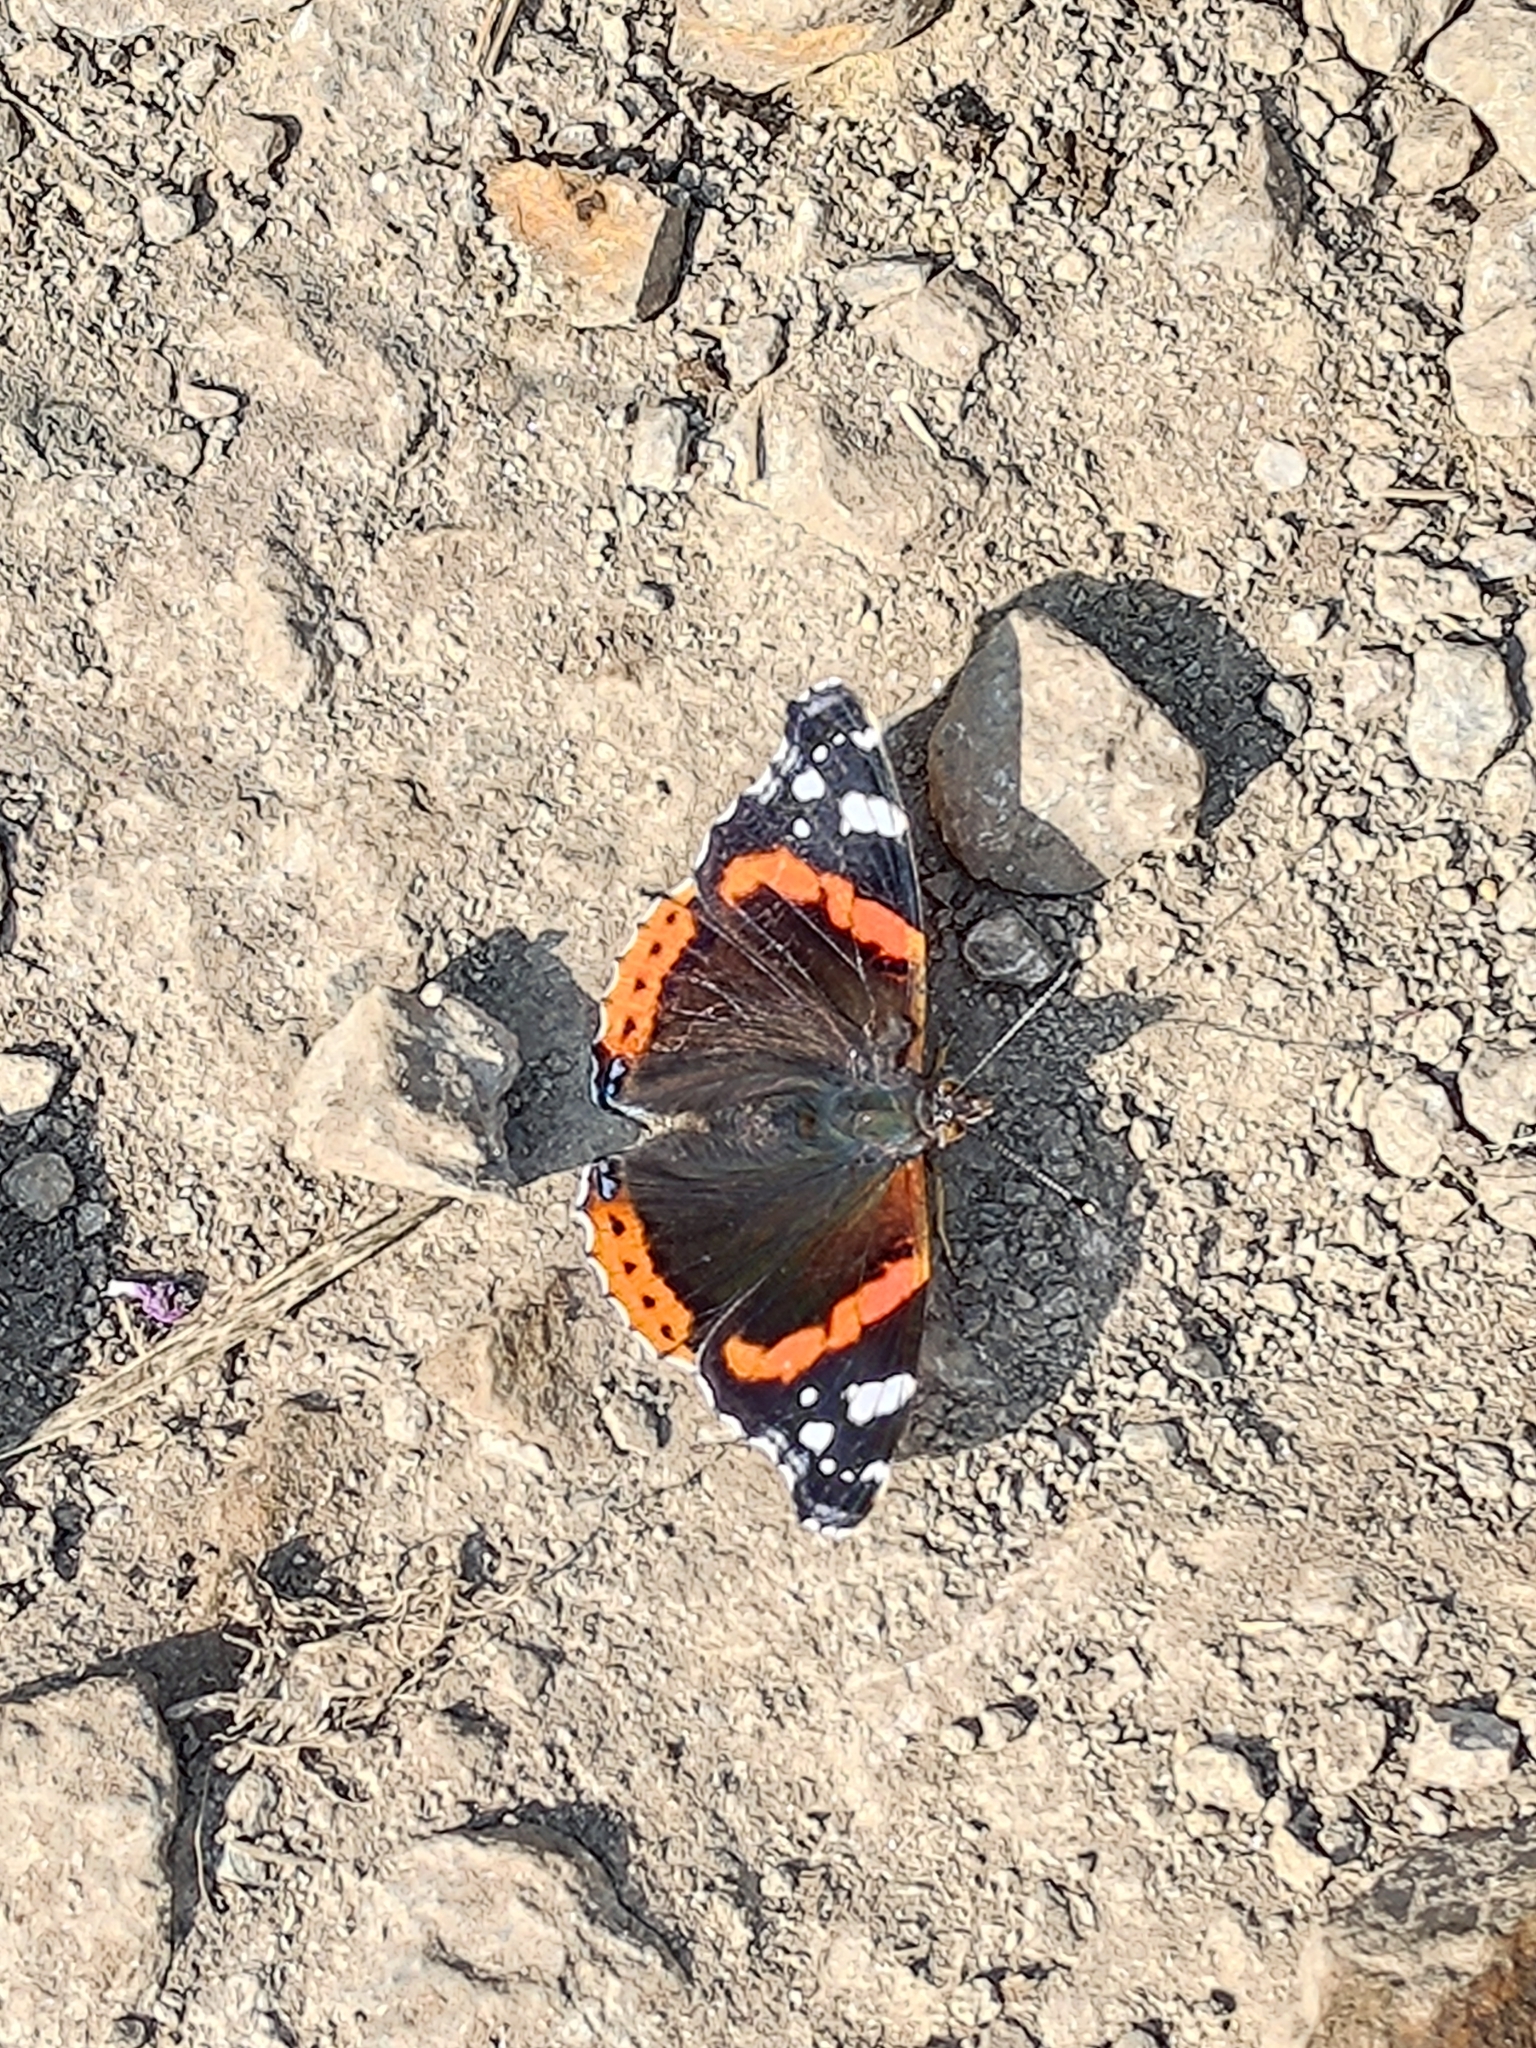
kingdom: Animalia
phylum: Arthropoda
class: Insecta
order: Lepidoptera
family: Nymphalidae
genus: Vanessa
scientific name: Vanessa atalanta
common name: Red admiral
